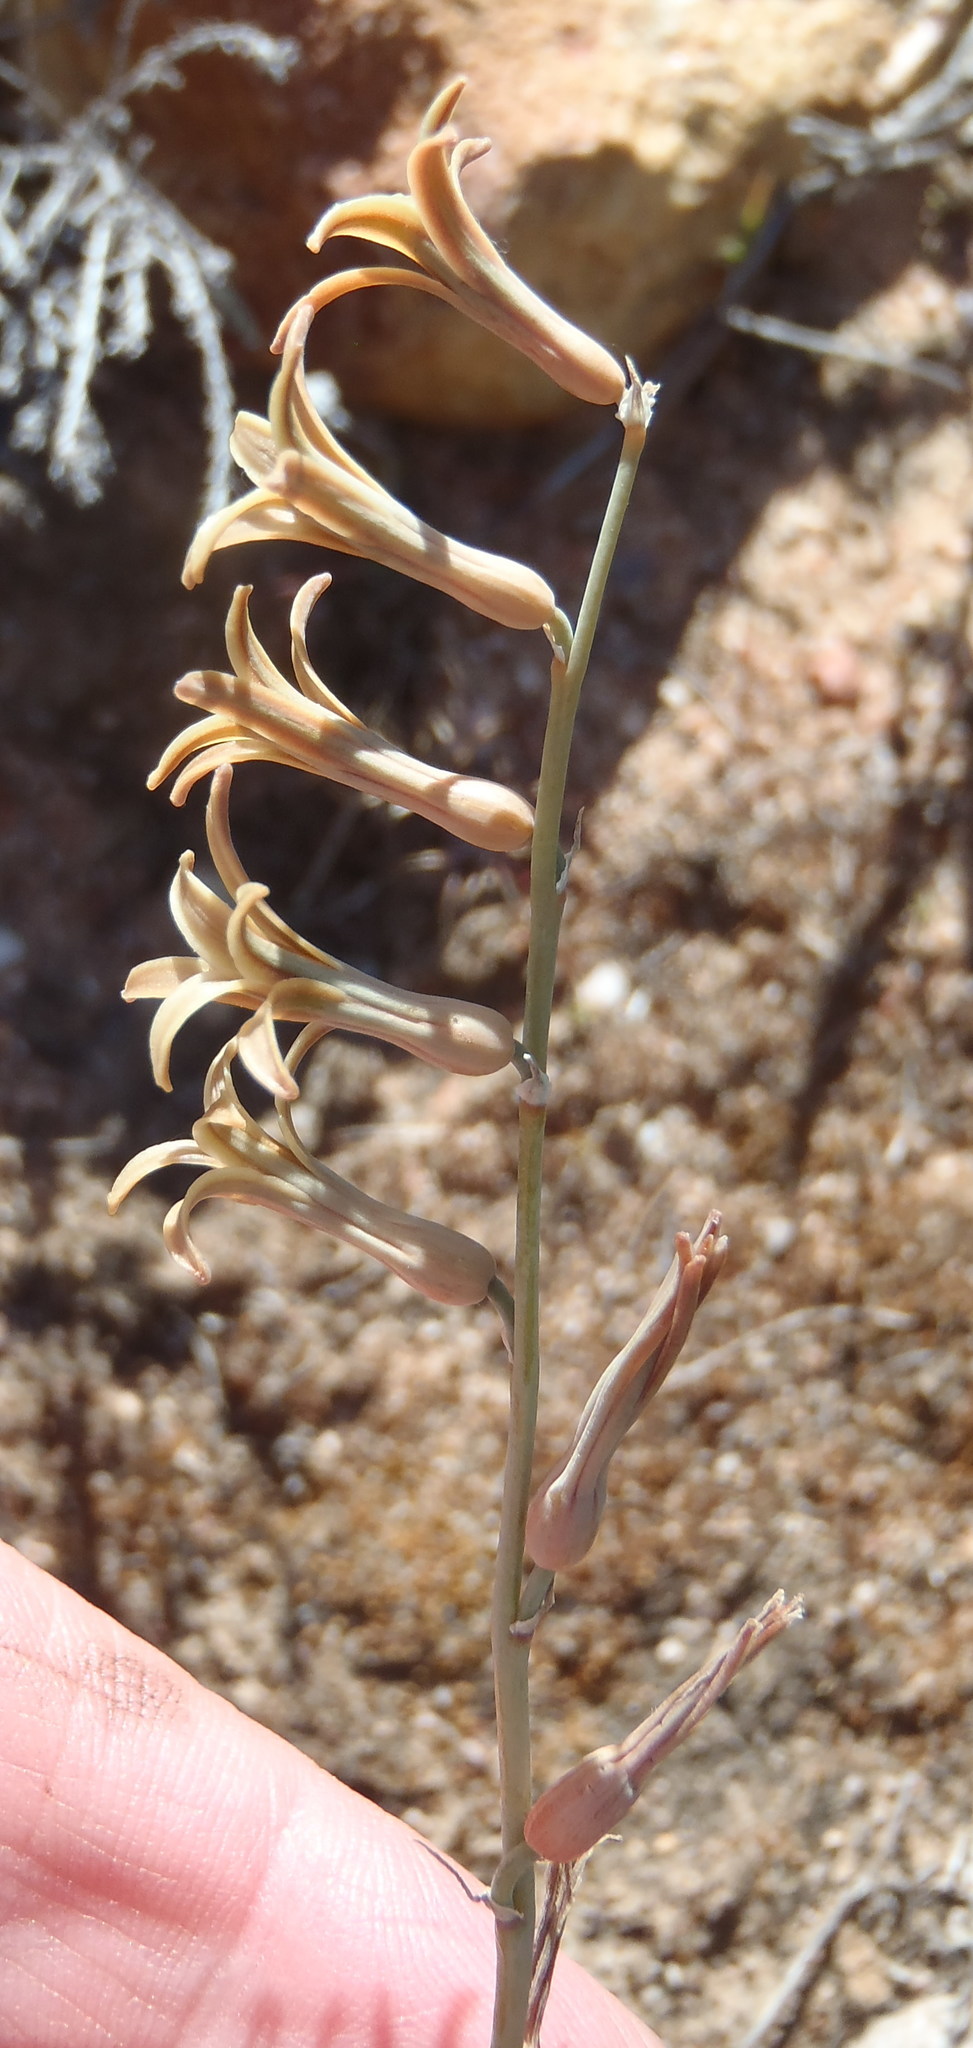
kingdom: Plantae
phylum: Tracheophyta
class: Liliopsida
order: Asparagales
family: Asparagaceae
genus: Dipcadi
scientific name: Dipcadi brevifolium
